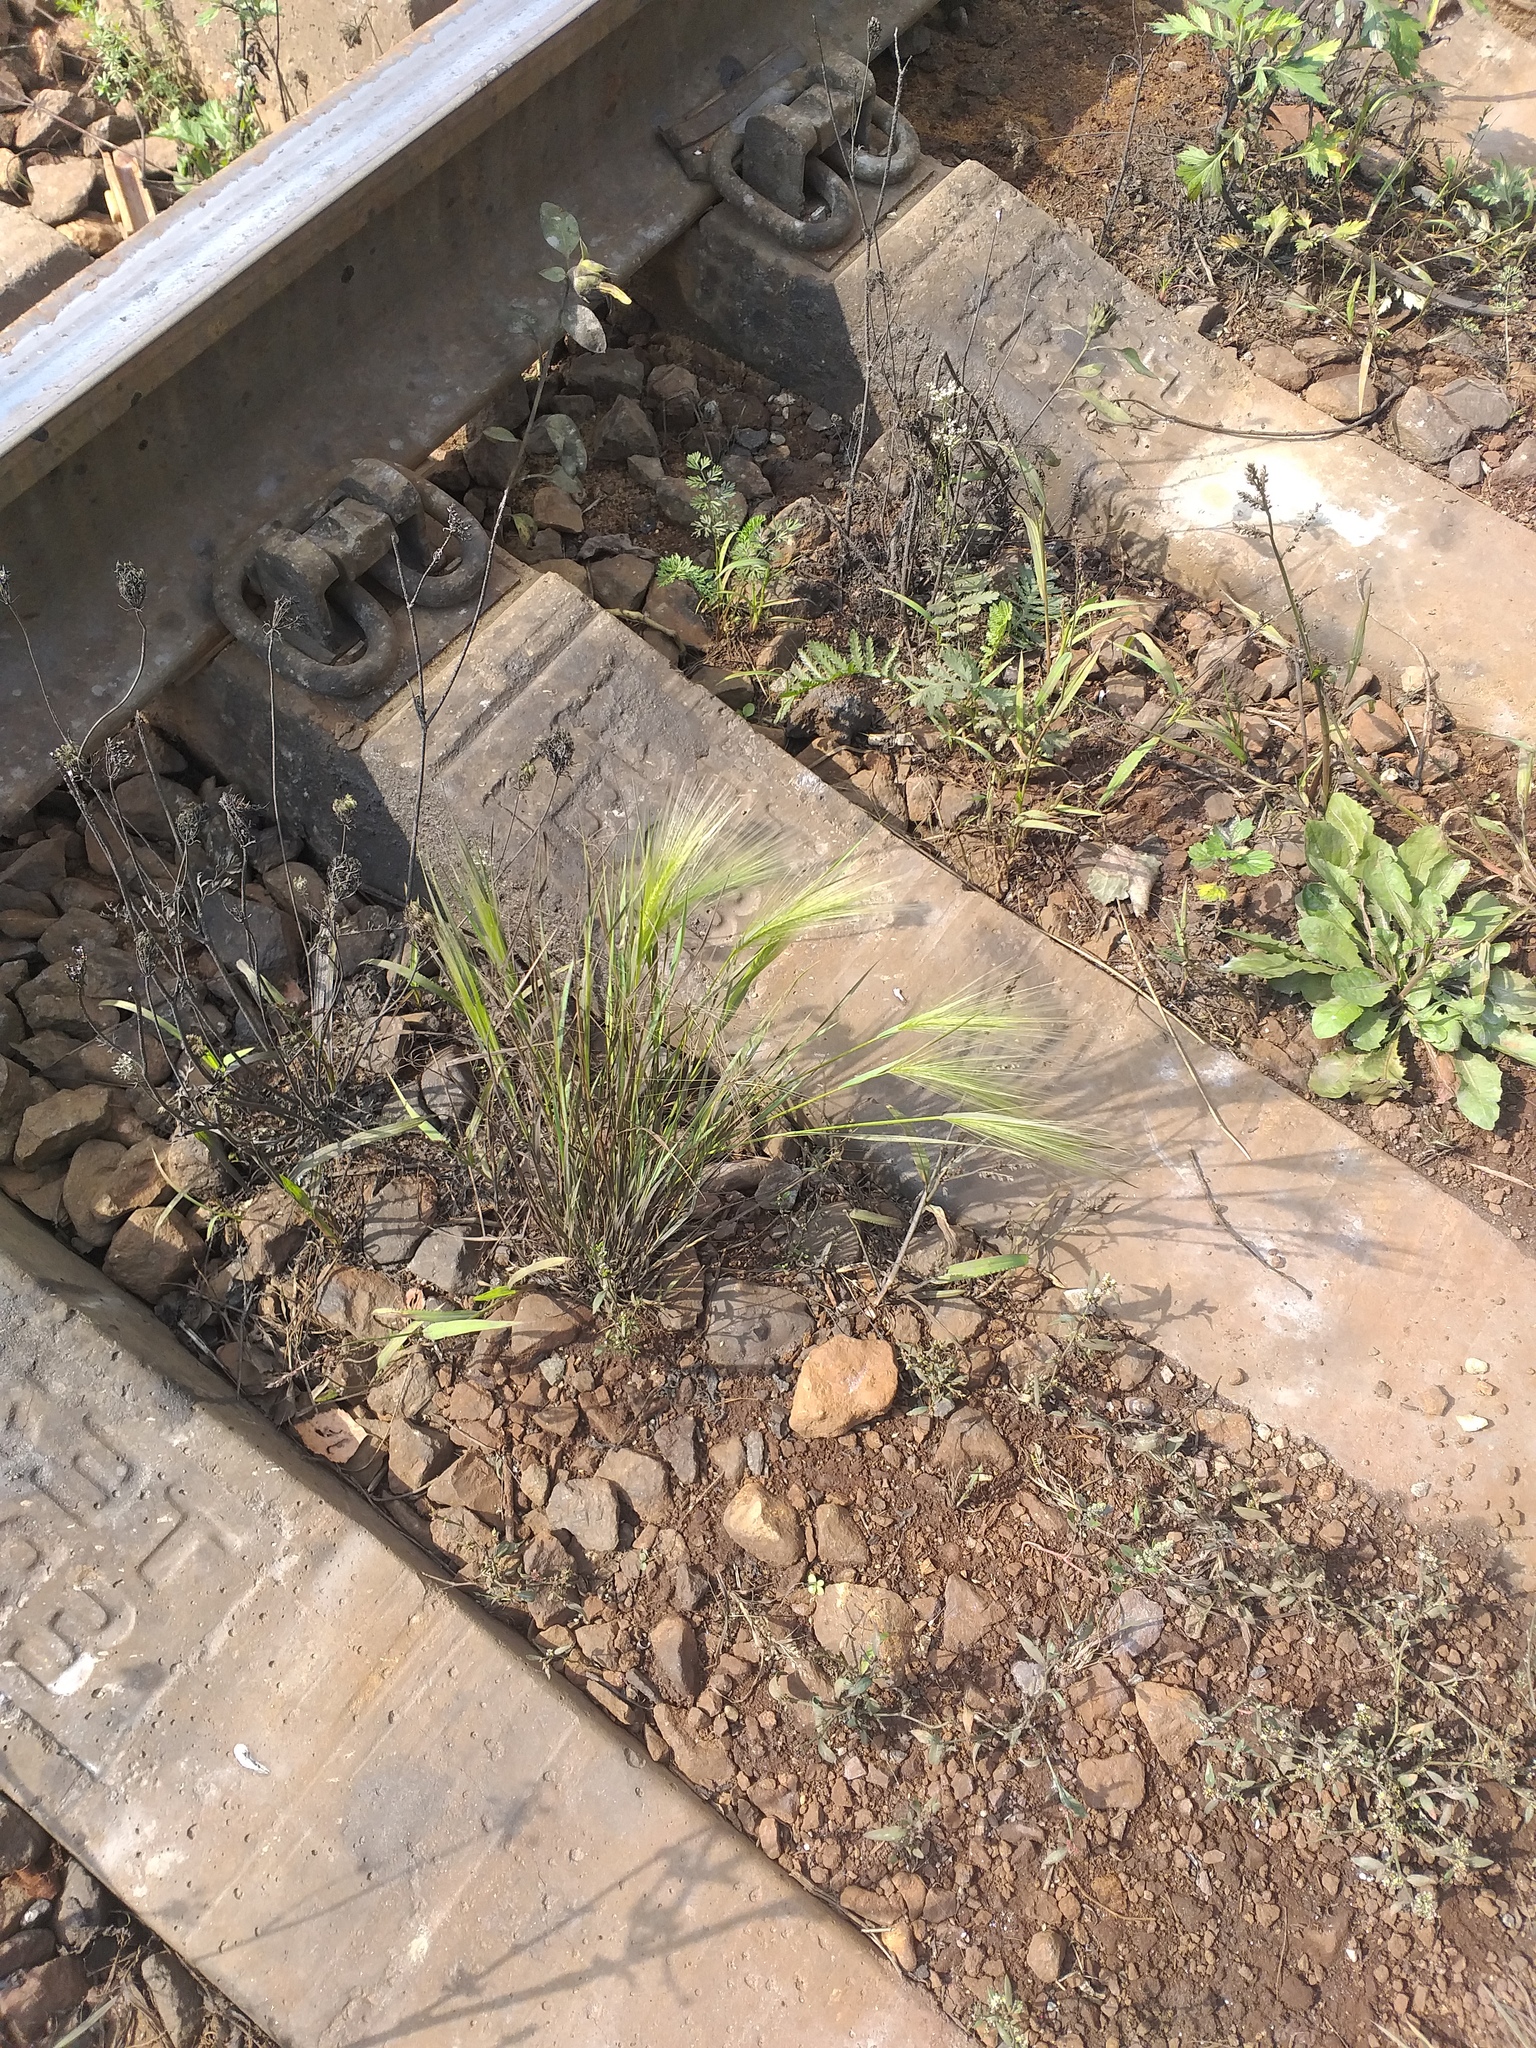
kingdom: Plantae
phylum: Tracheophyta
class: Liliopsida
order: Poales
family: Poaceae
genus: Hordeum
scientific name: Hordeum jubatum
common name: Foxtail barley
